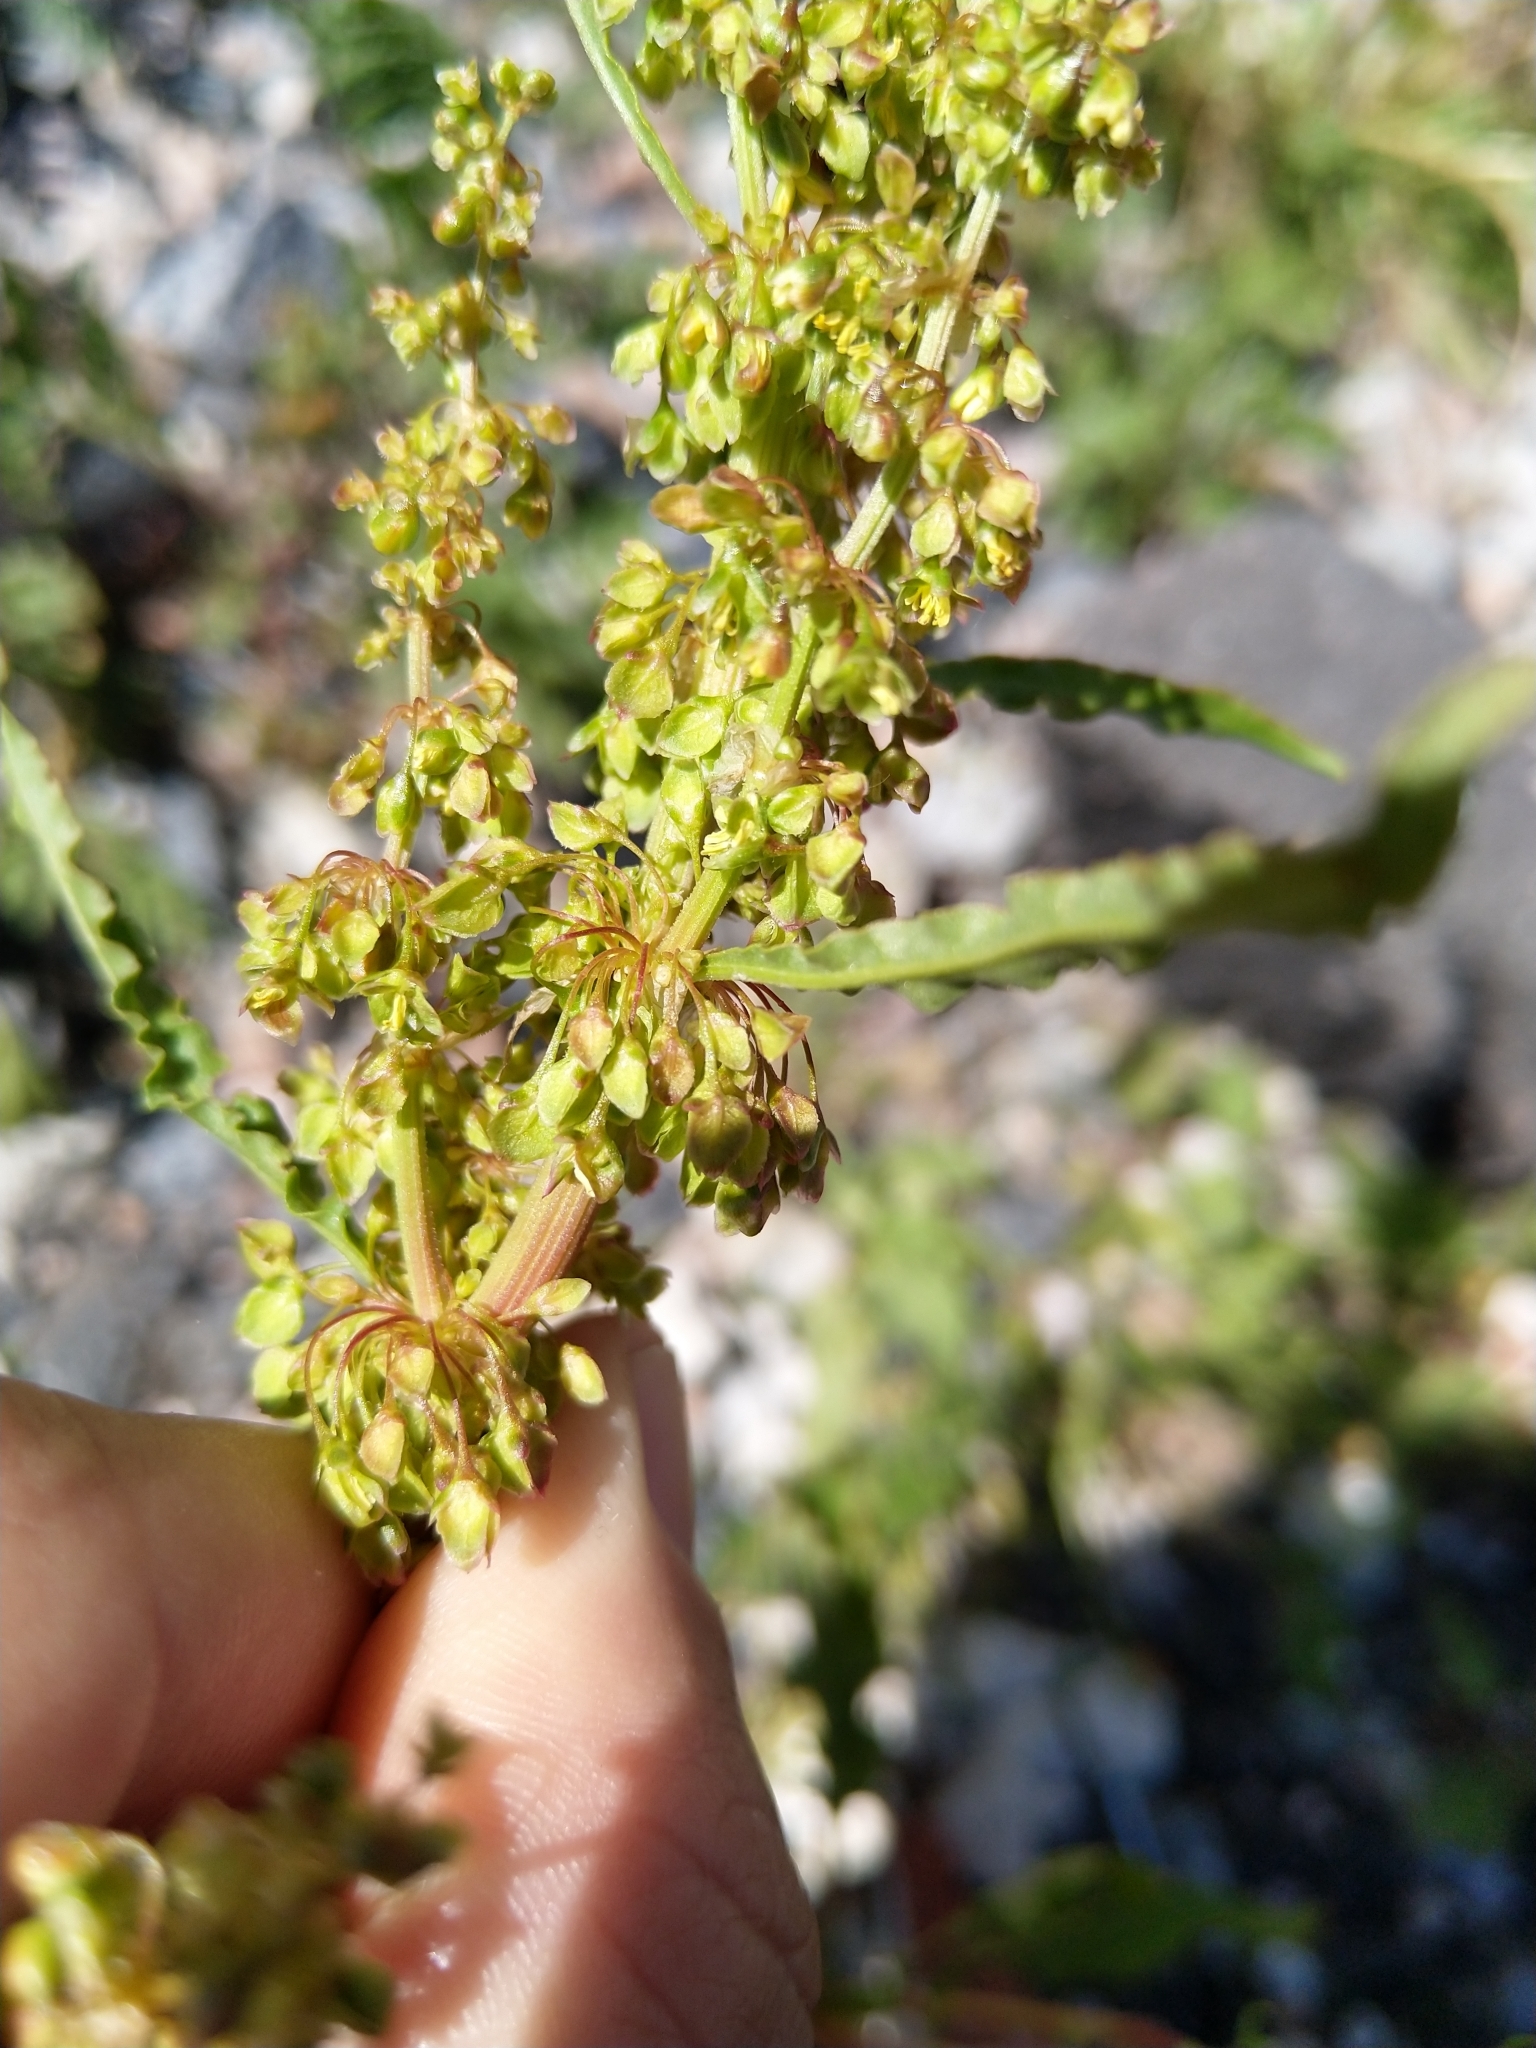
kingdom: Plantae
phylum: Tracheophyta
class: Magnoliopsida
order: Caryophyllales
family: Polygonaceae
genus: Rumex
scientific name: Rumex longifolius
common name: Dooryard dock
